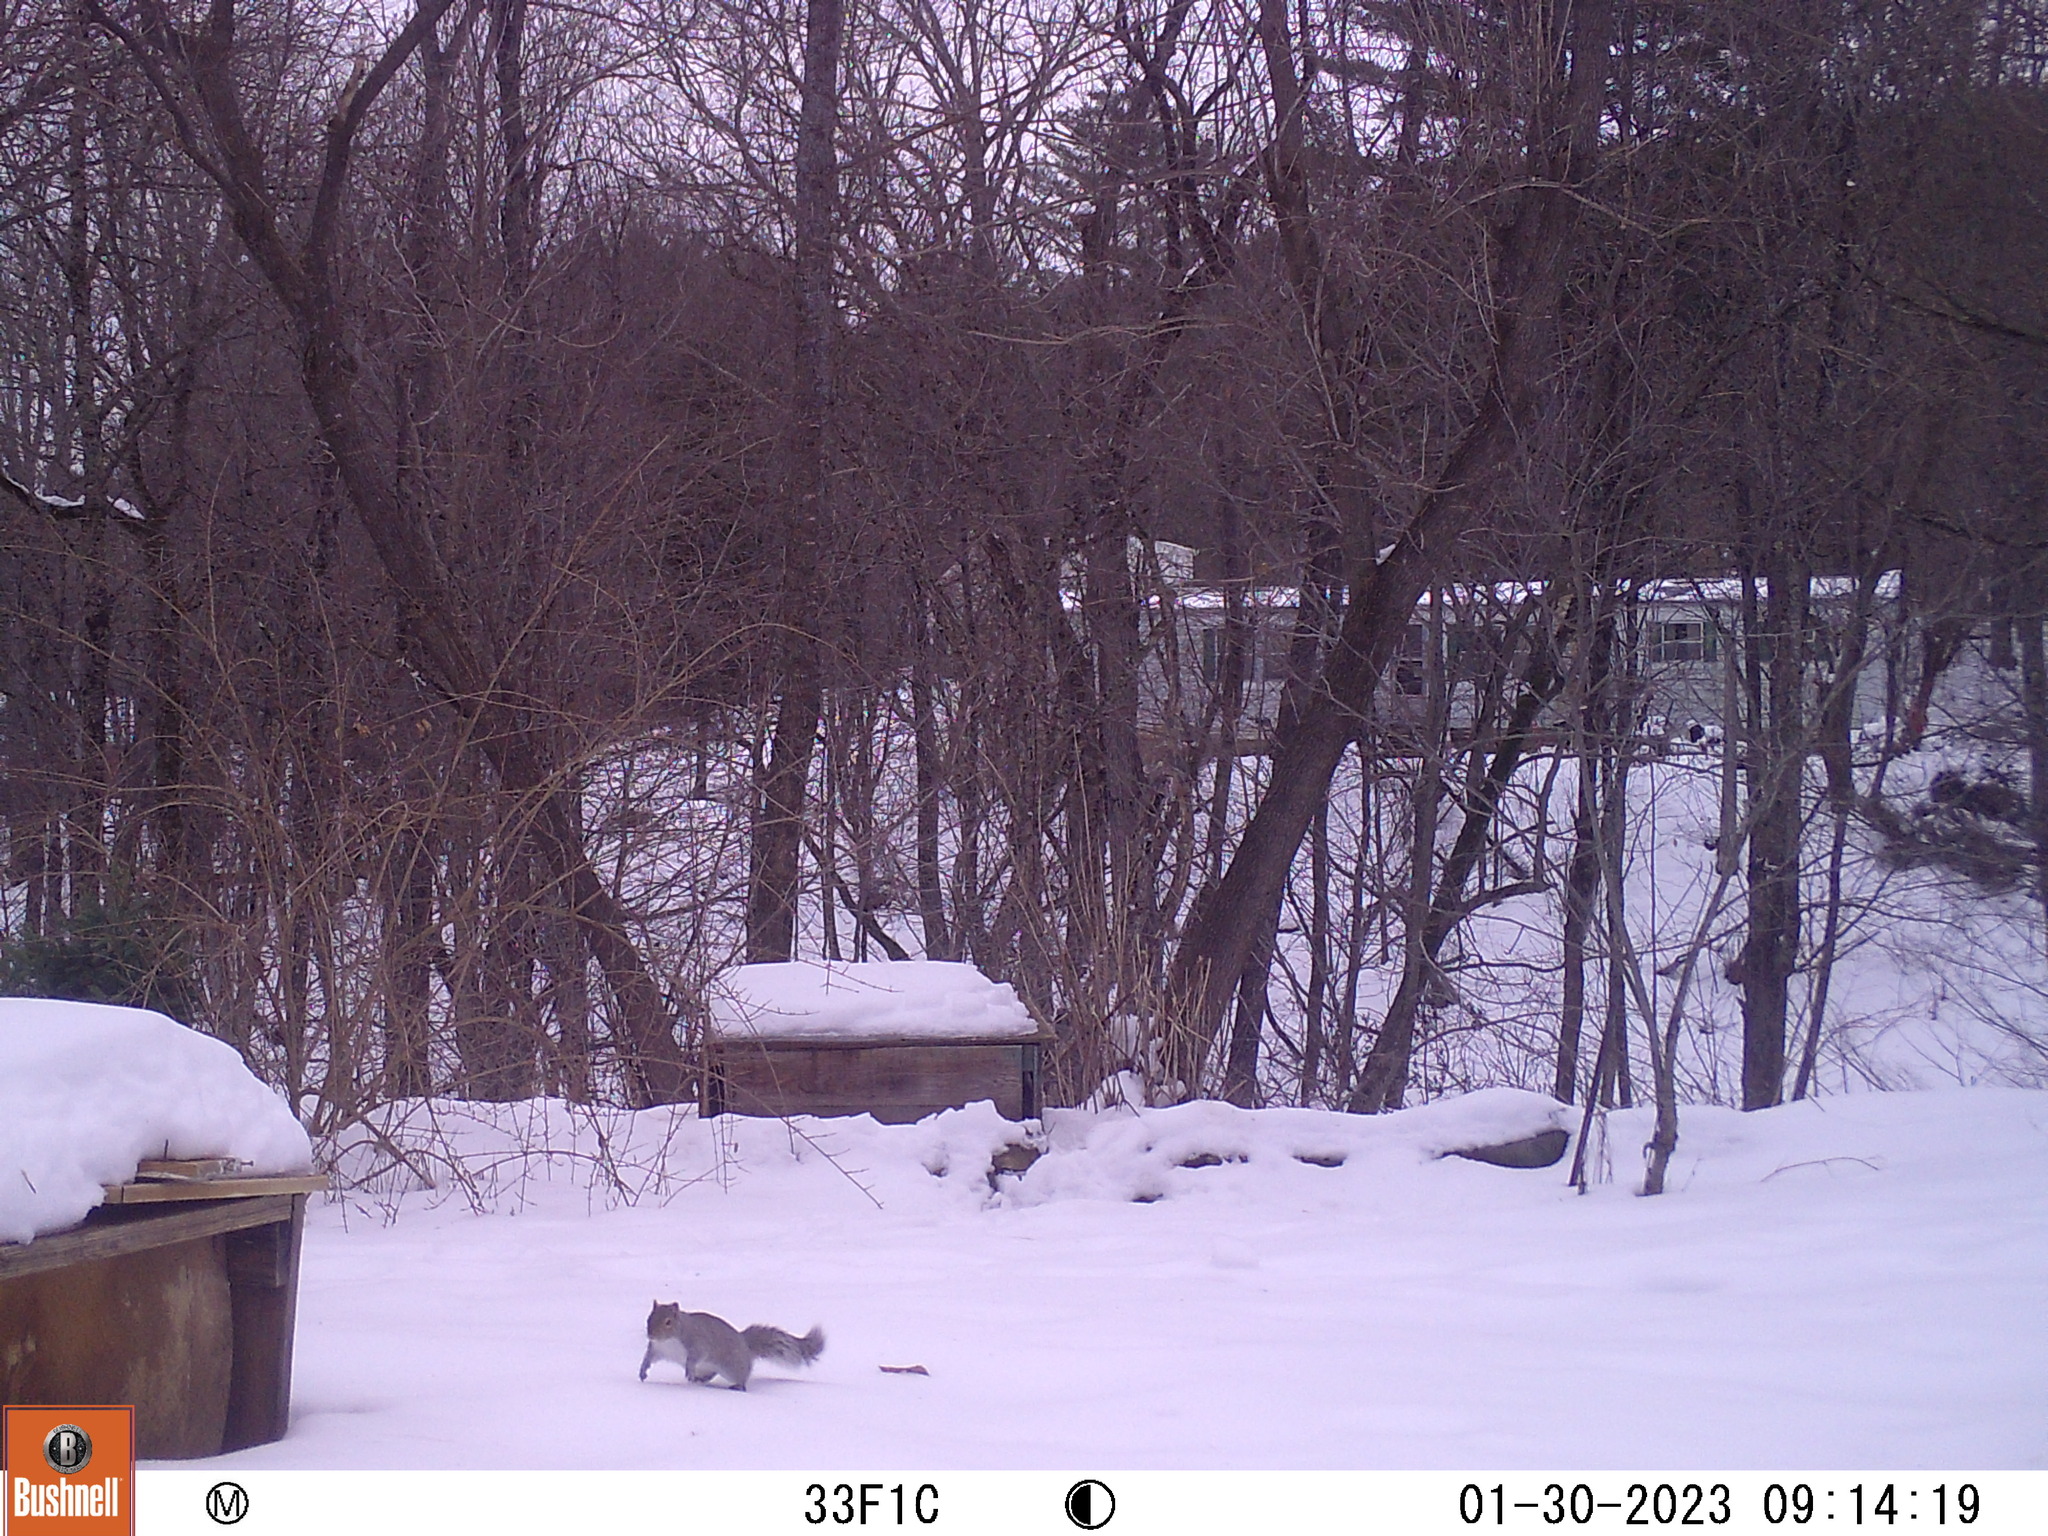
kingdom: Animalia
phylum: Chordata
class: Mammalia
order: Rodentia
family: Sciuridae
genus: Sciurus
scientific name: Sciurus carolinensis
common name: Eastern gray squirrel
